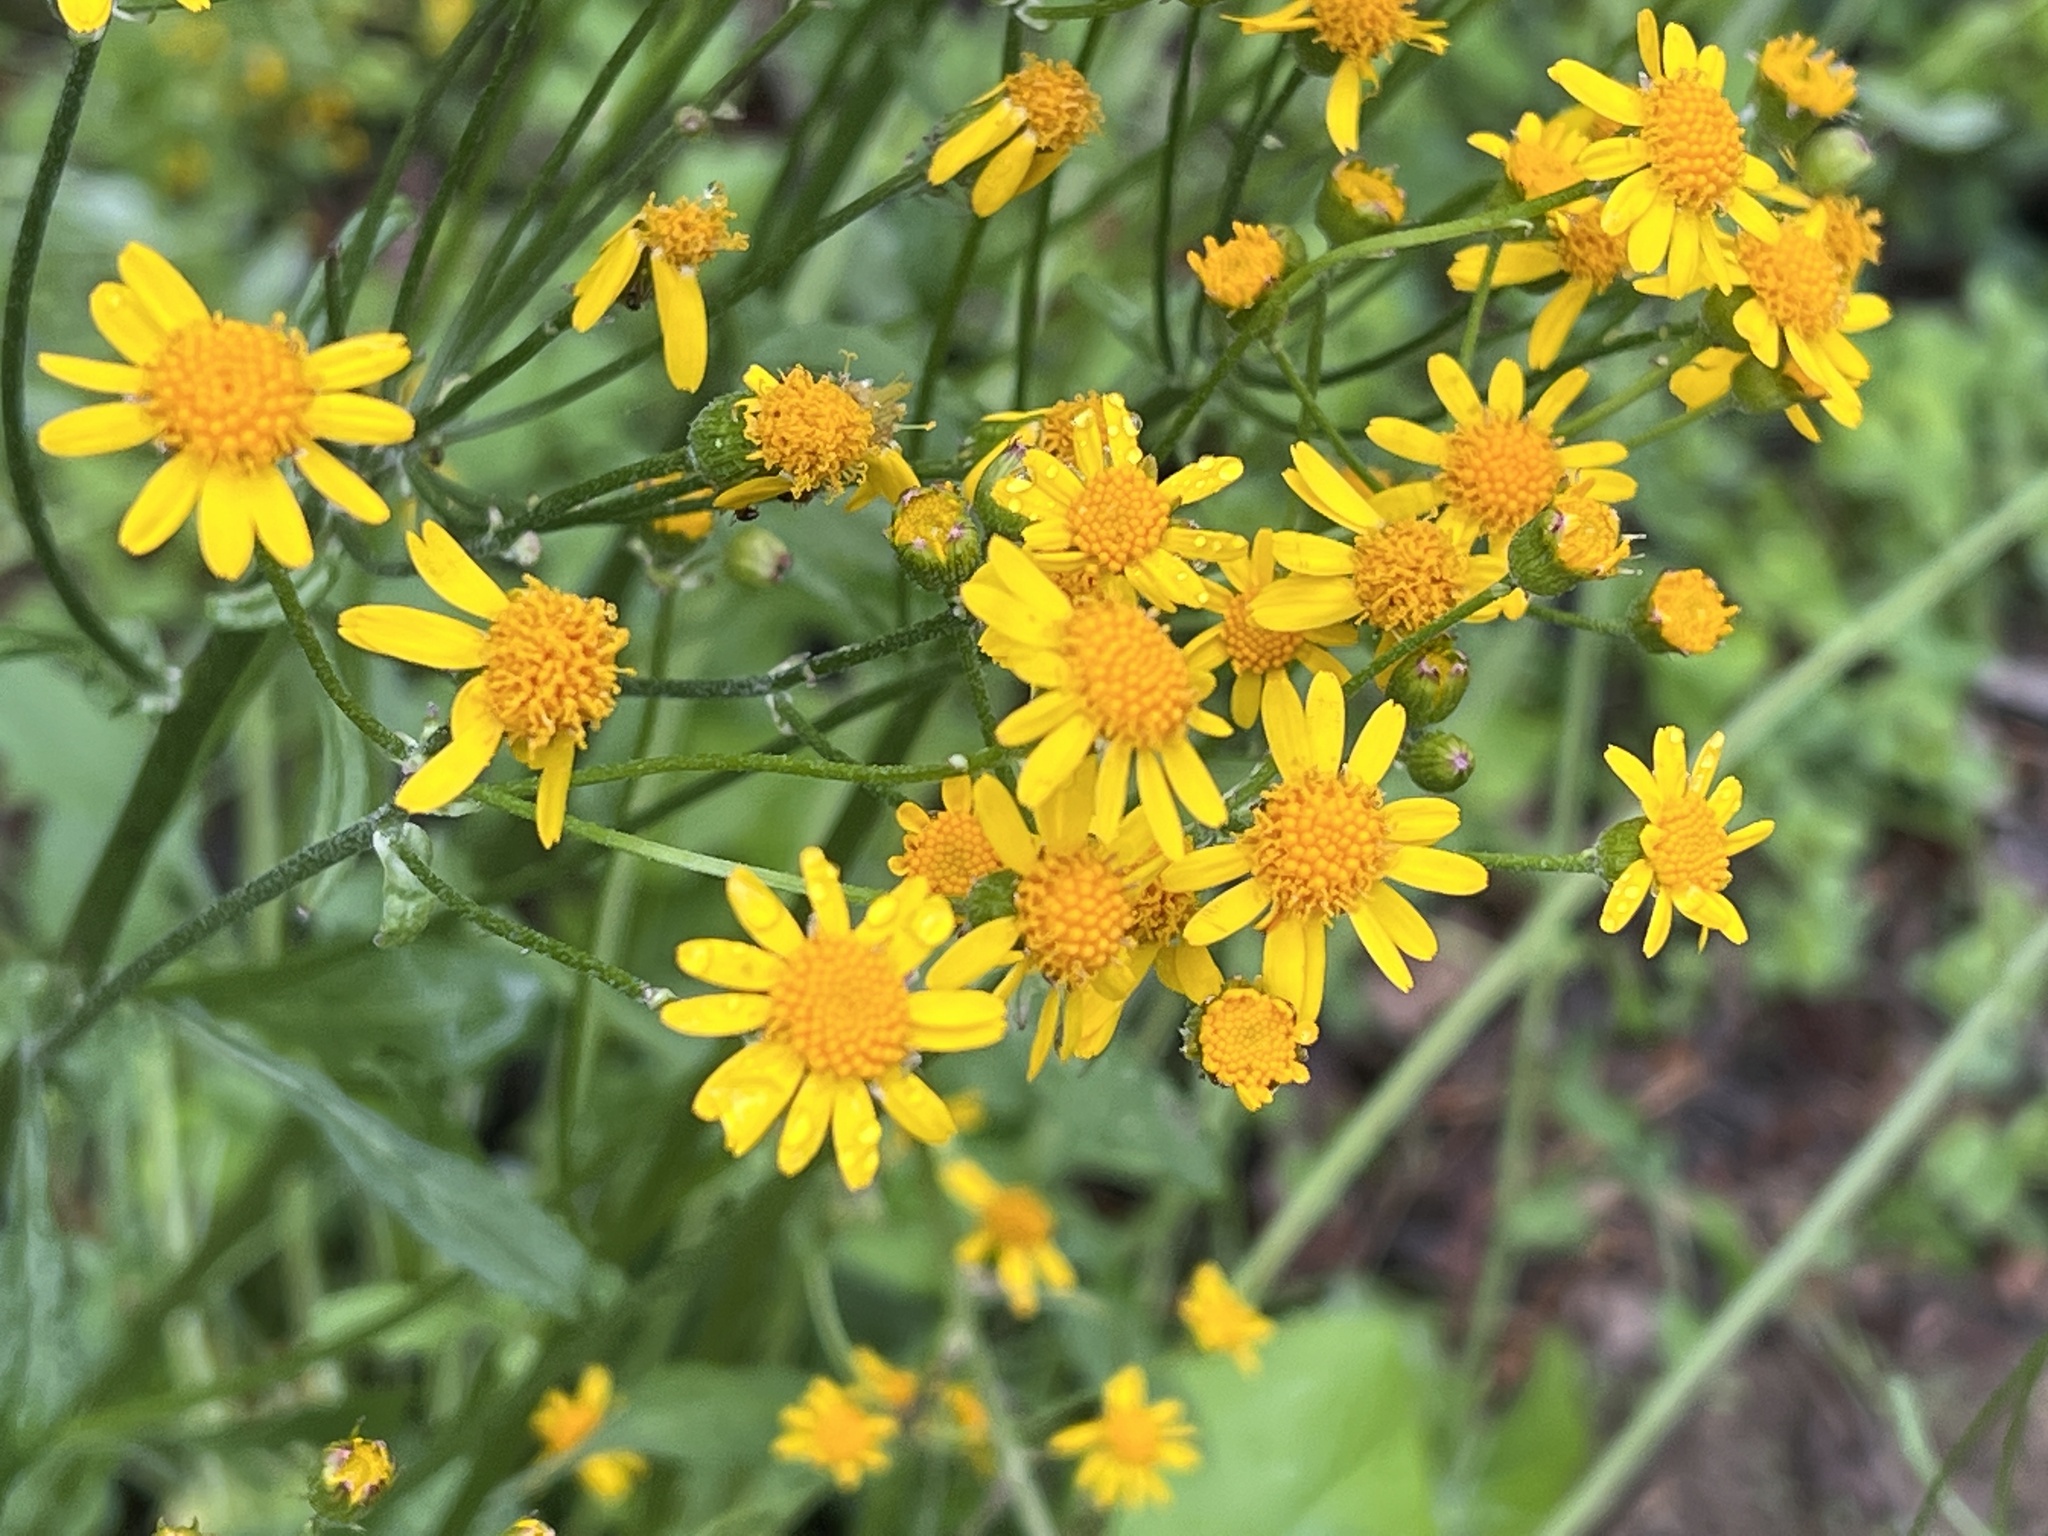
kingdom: Plantae
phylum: Tracheophyta
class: Magnoliopsida
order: Asterales
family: Asteraceae
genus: Packera
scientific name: Packera aurea
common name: Golden groundsel
